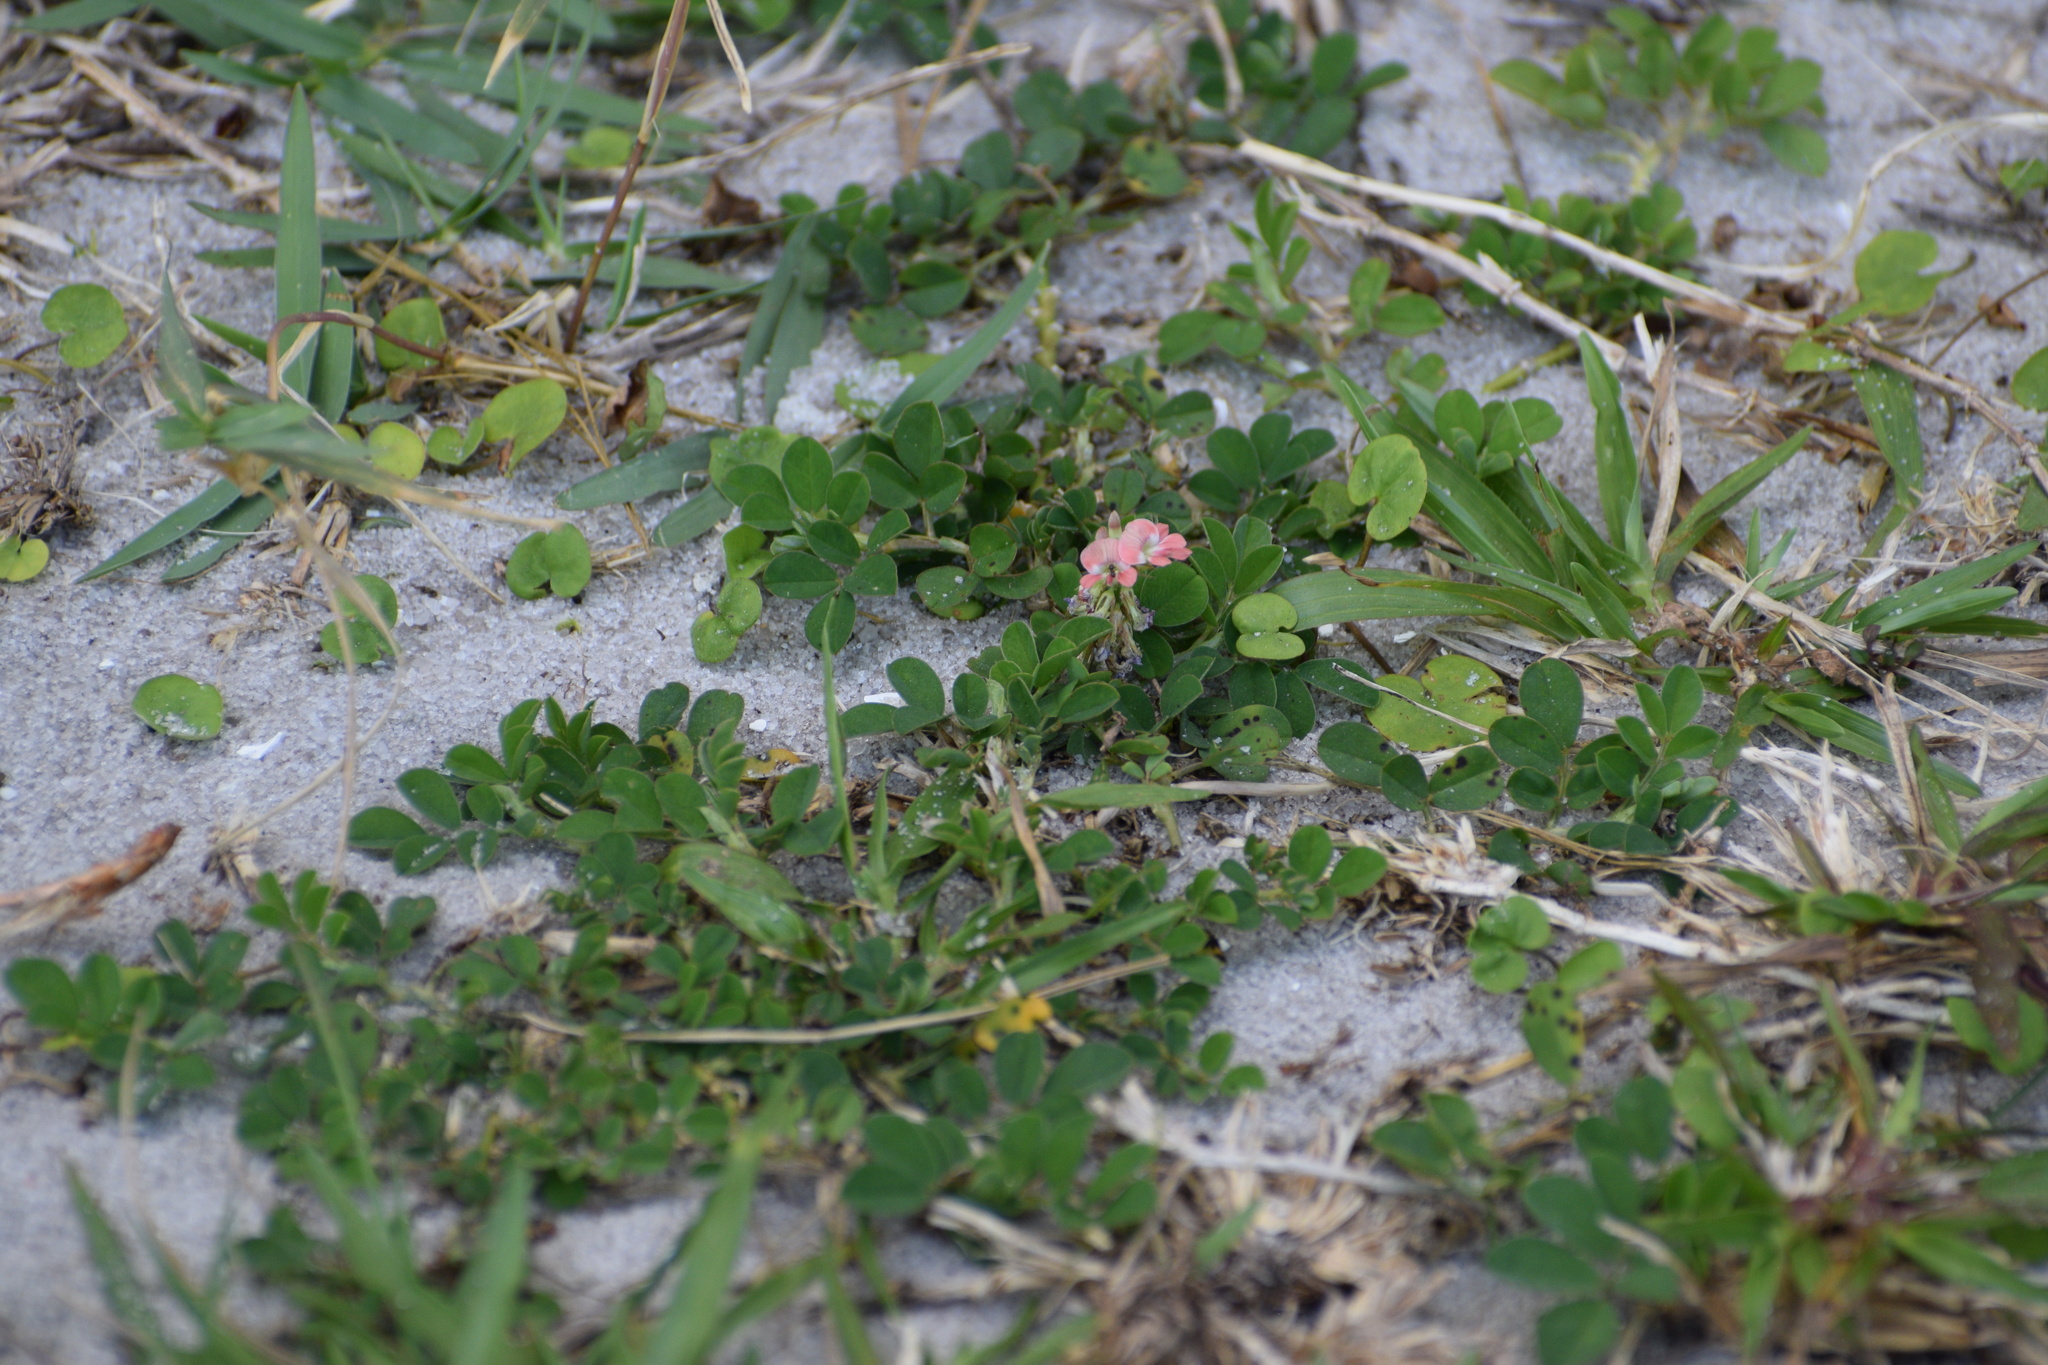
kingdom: Plantae
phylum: Tracheophyta
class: Magnoliopsida
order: Fabales
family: Fabaceae
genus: Indigofera
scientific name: Indigofera spicata
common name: Creeping indigo
